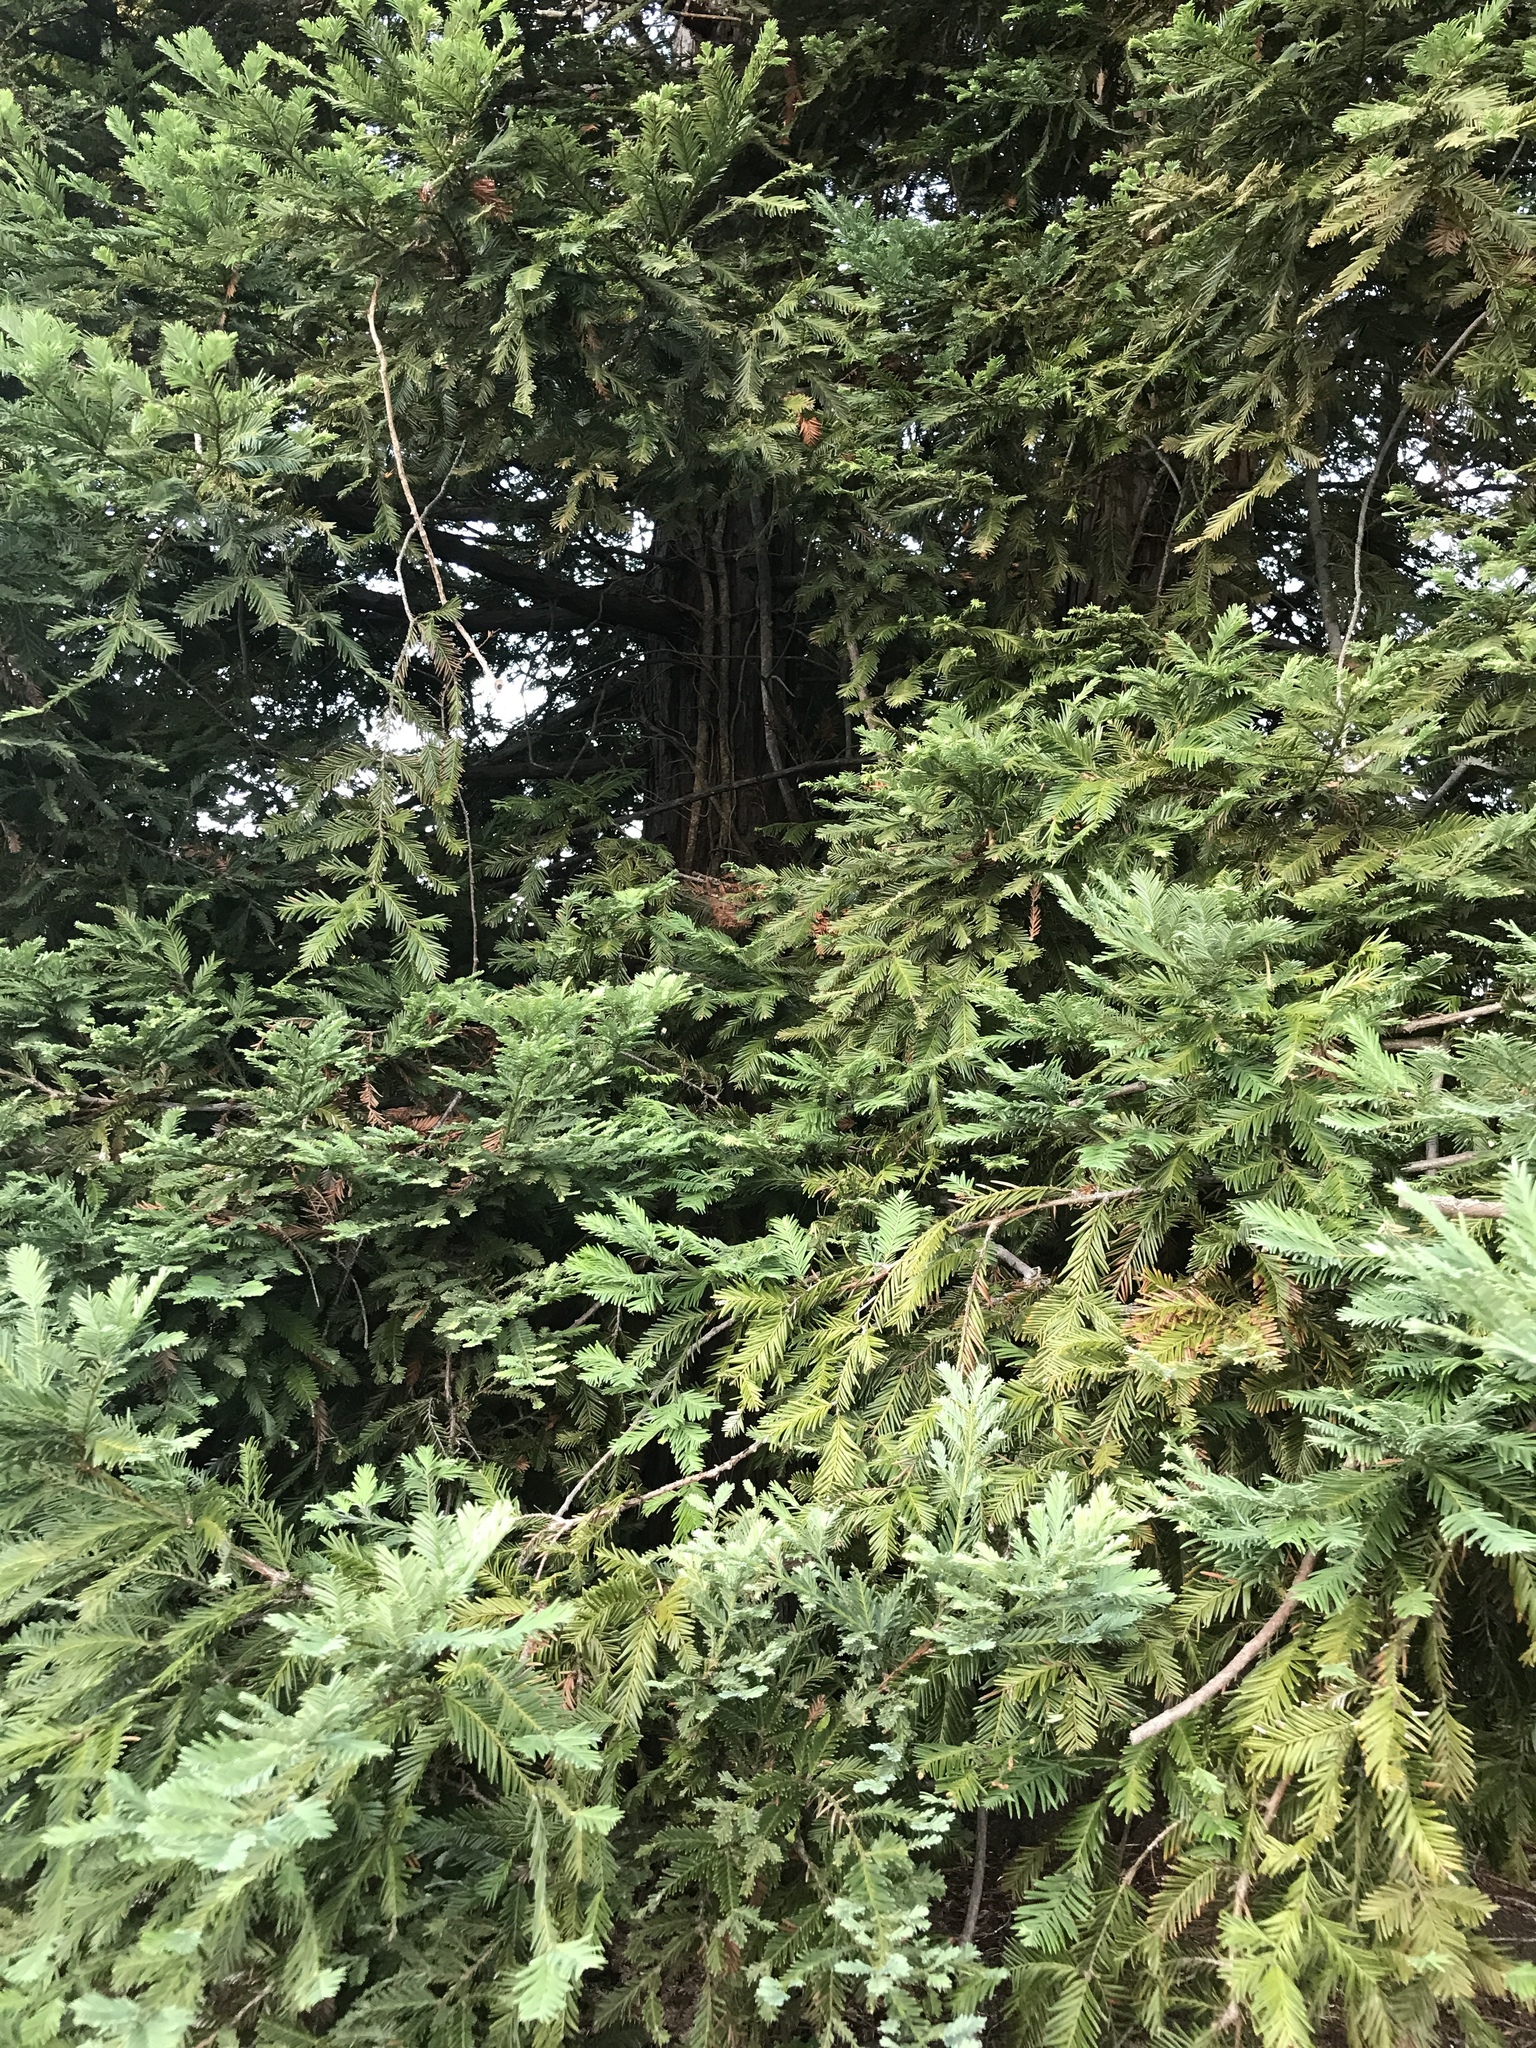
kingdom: Plantae
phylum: Tracheophyta
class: Pinopsida
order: Pinales
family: Cupressaceae
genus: Sequoia
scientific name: Sequoia sempervirens
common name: Coast redwood
